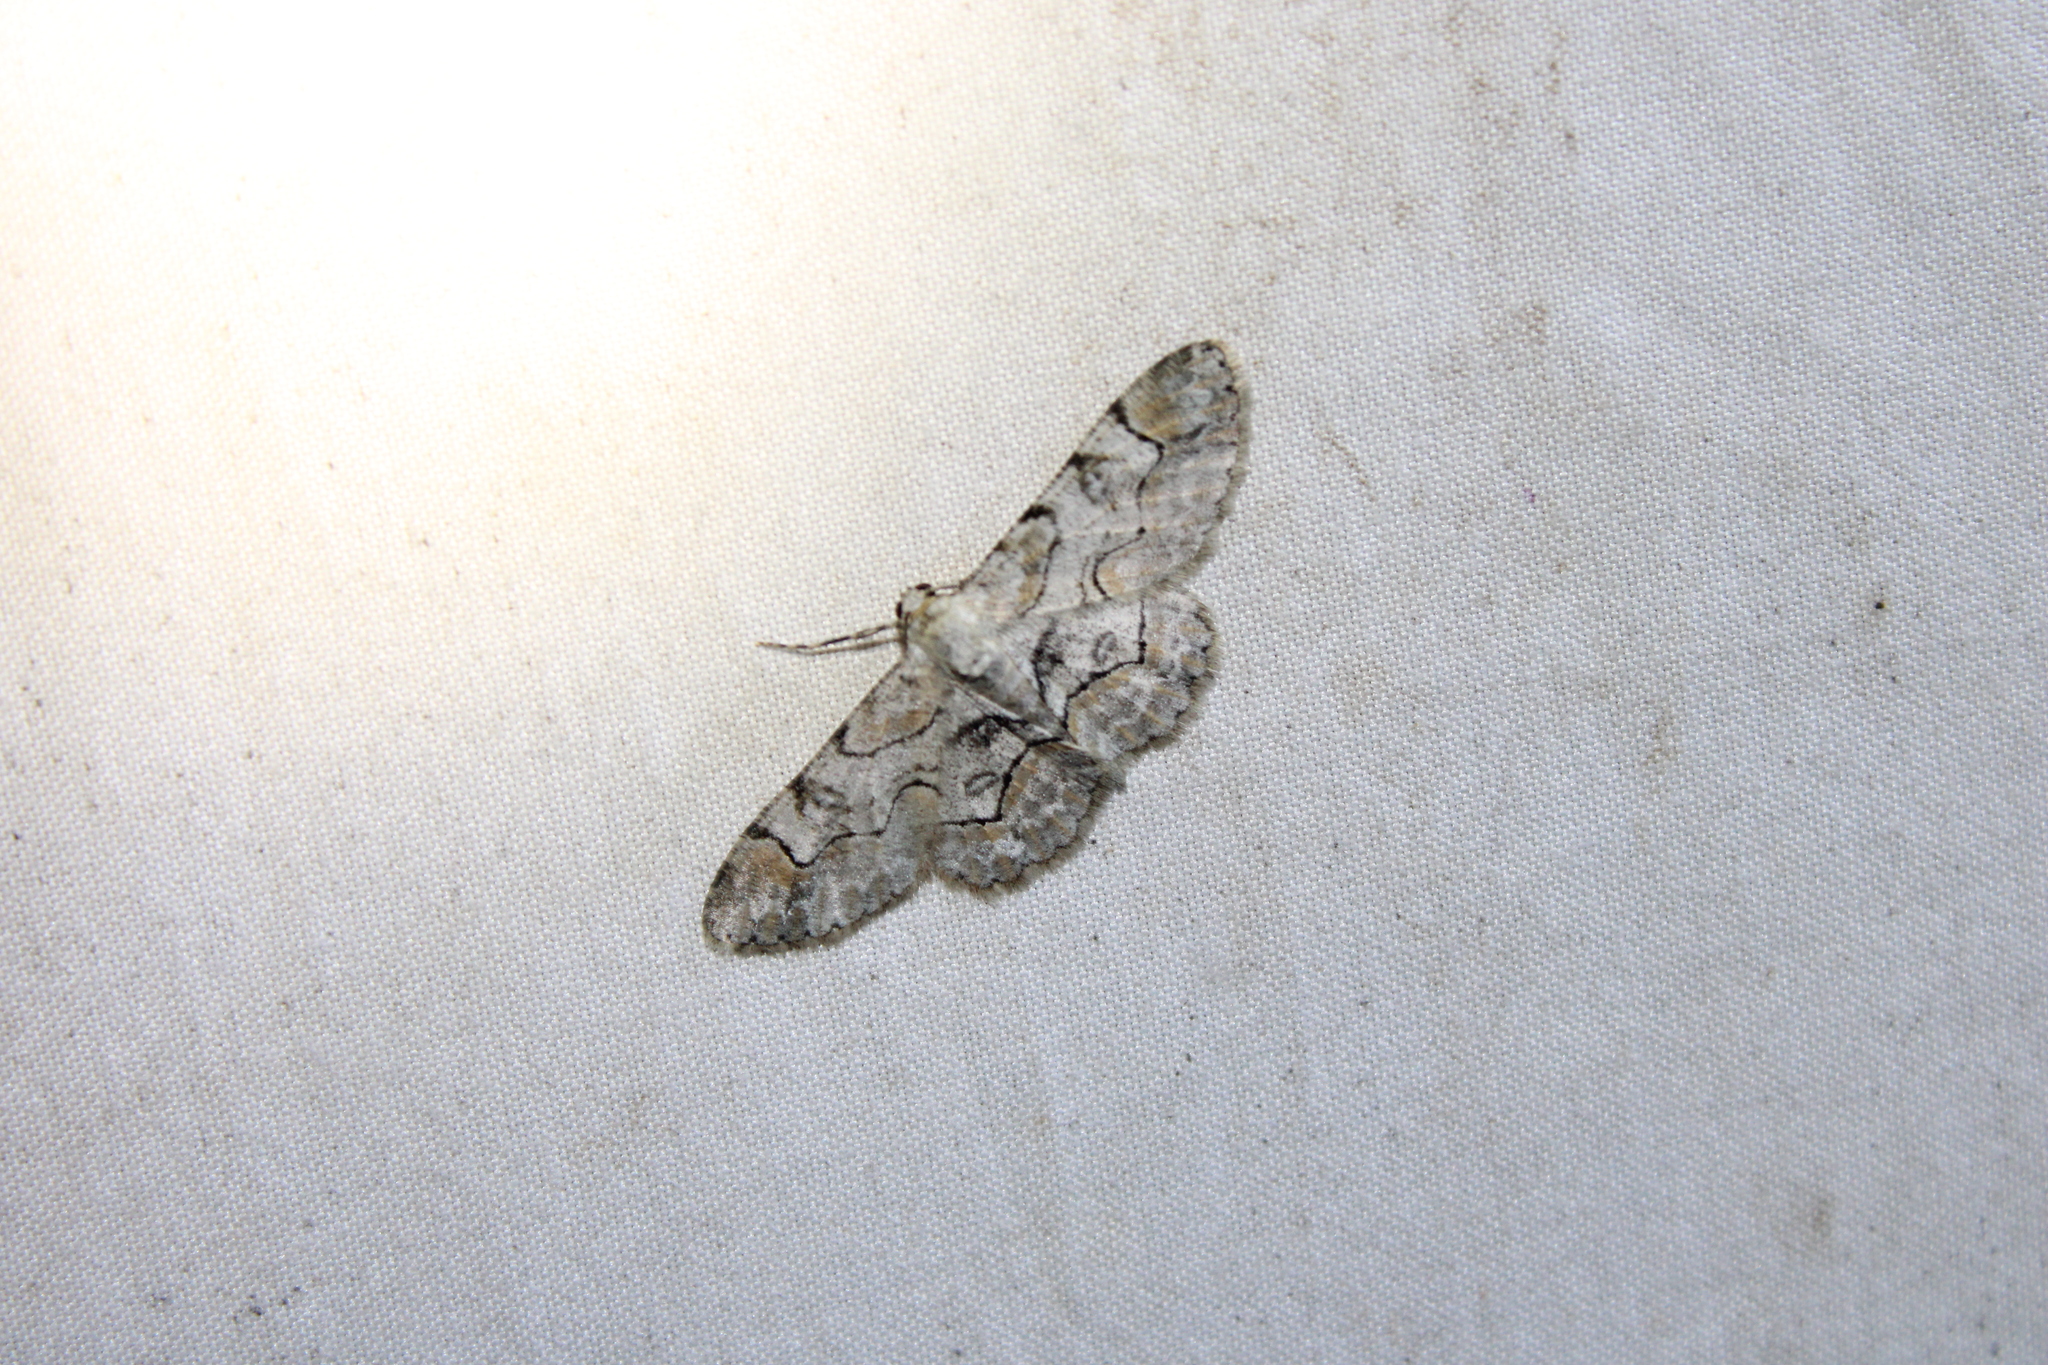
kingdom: Animalia
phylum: Arthropoda
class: Insecta
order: Lepidoptera
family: Geometridae
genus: Iridopsis
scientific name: Iridopsis larvaria
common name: Bent-line gray
